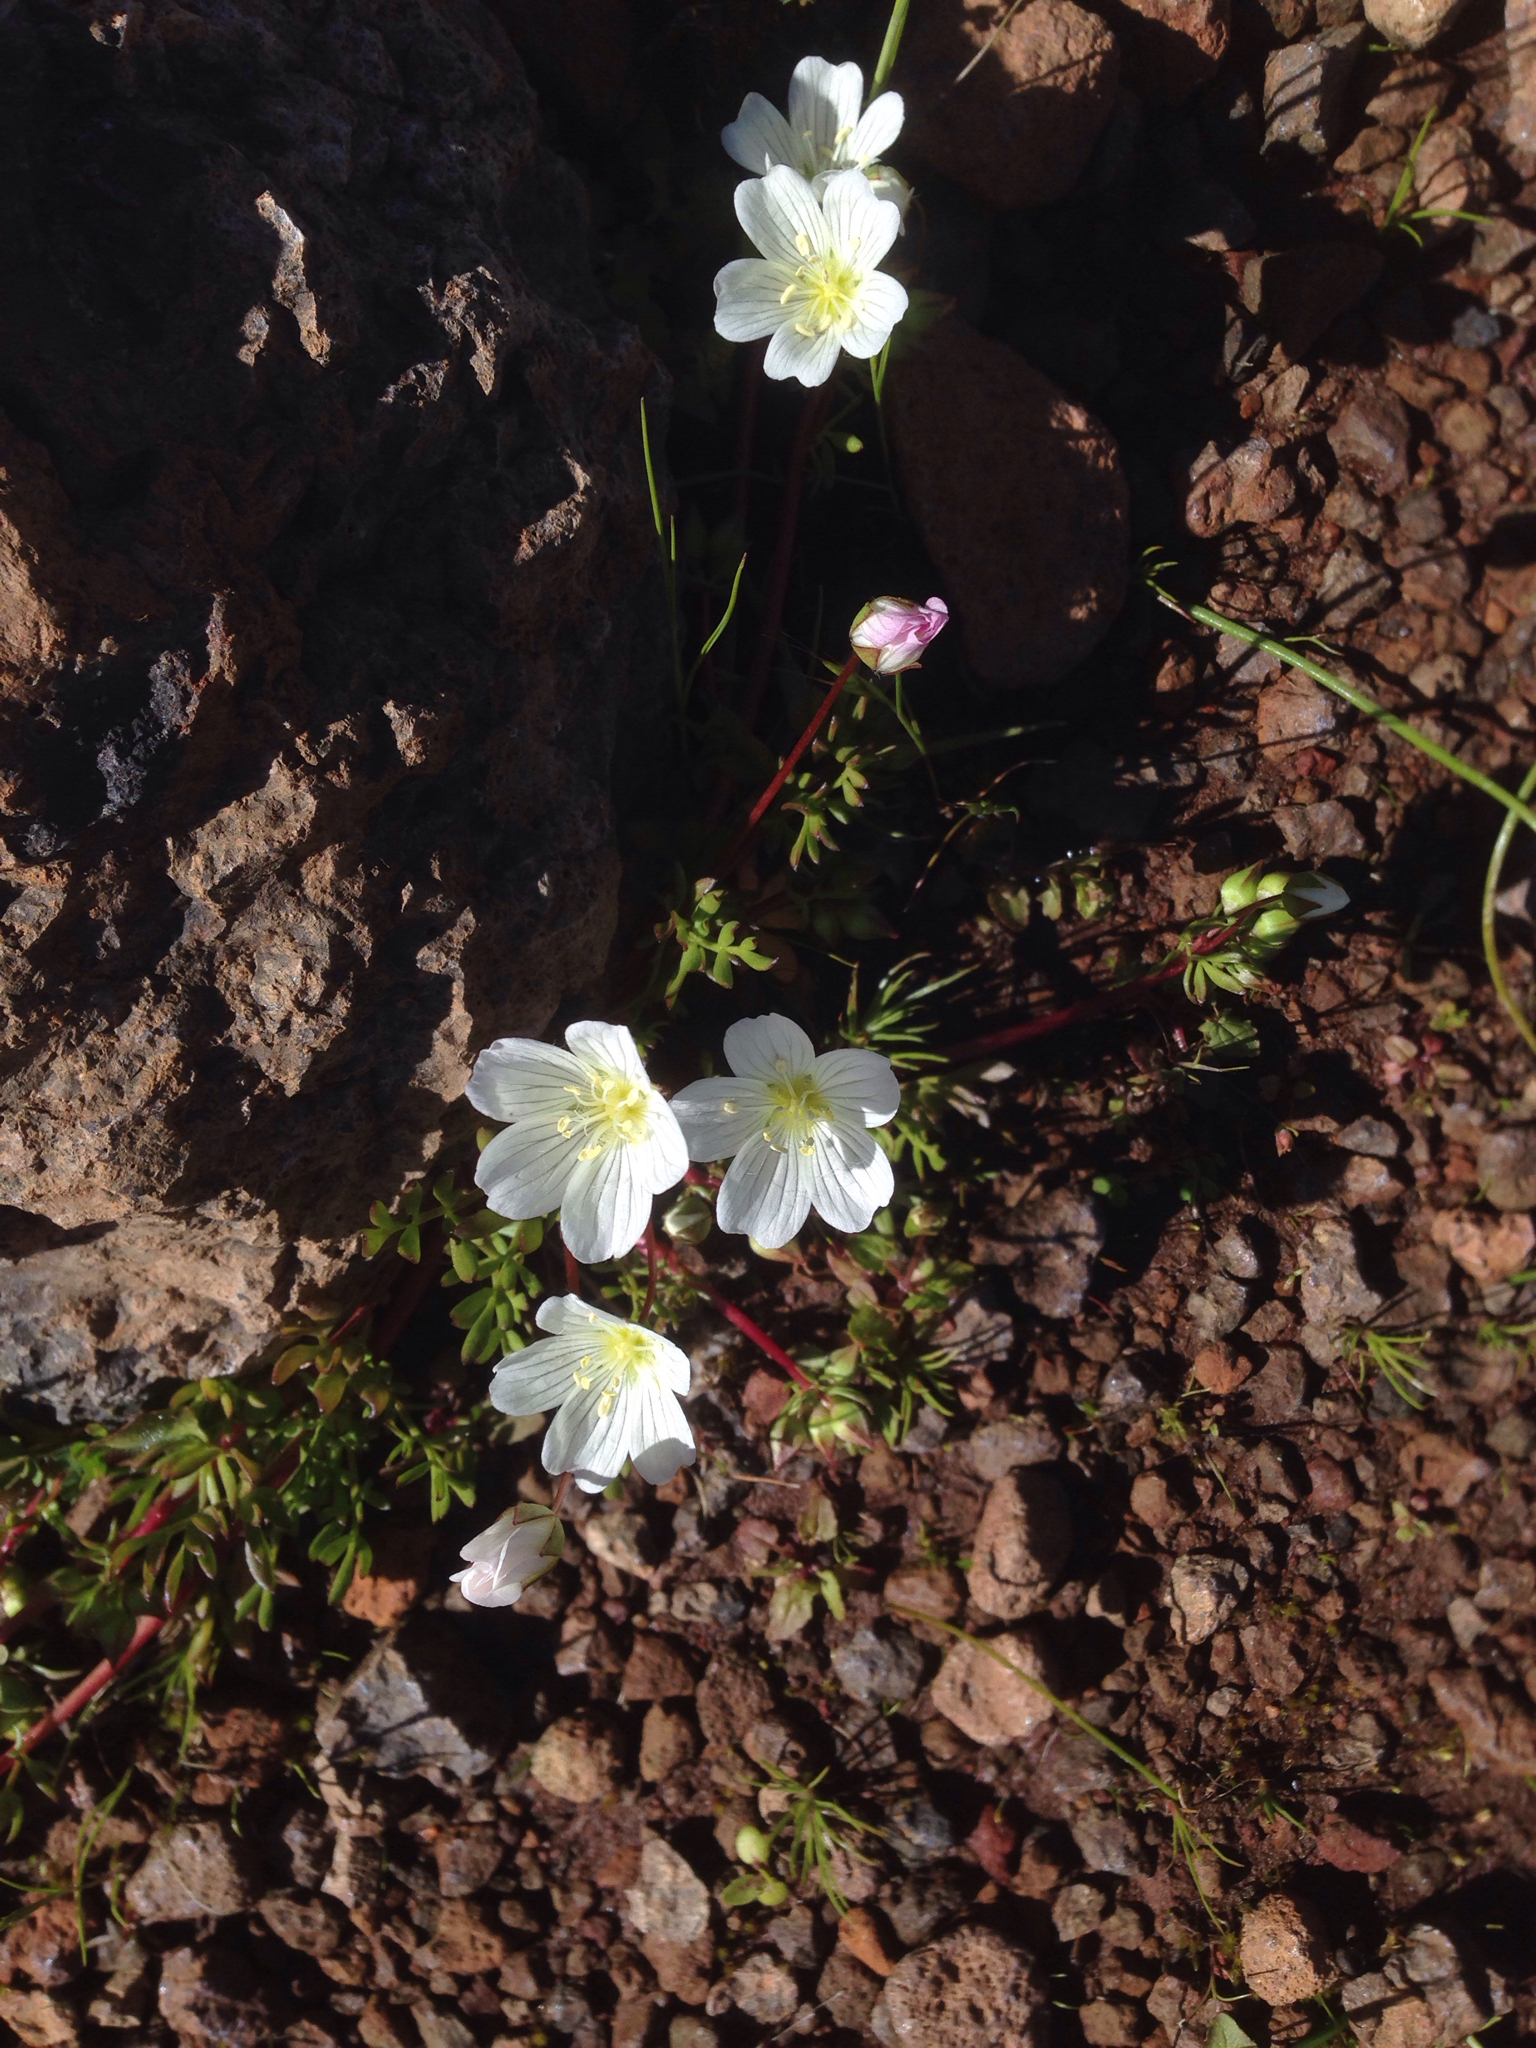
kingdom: Plantae
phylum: Tracheophyta
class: Magnoliopsida
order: Brassicales
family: Limnanthaceae
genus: Limnanthes
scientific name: Limnanthes alba
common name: Meadowfoam
